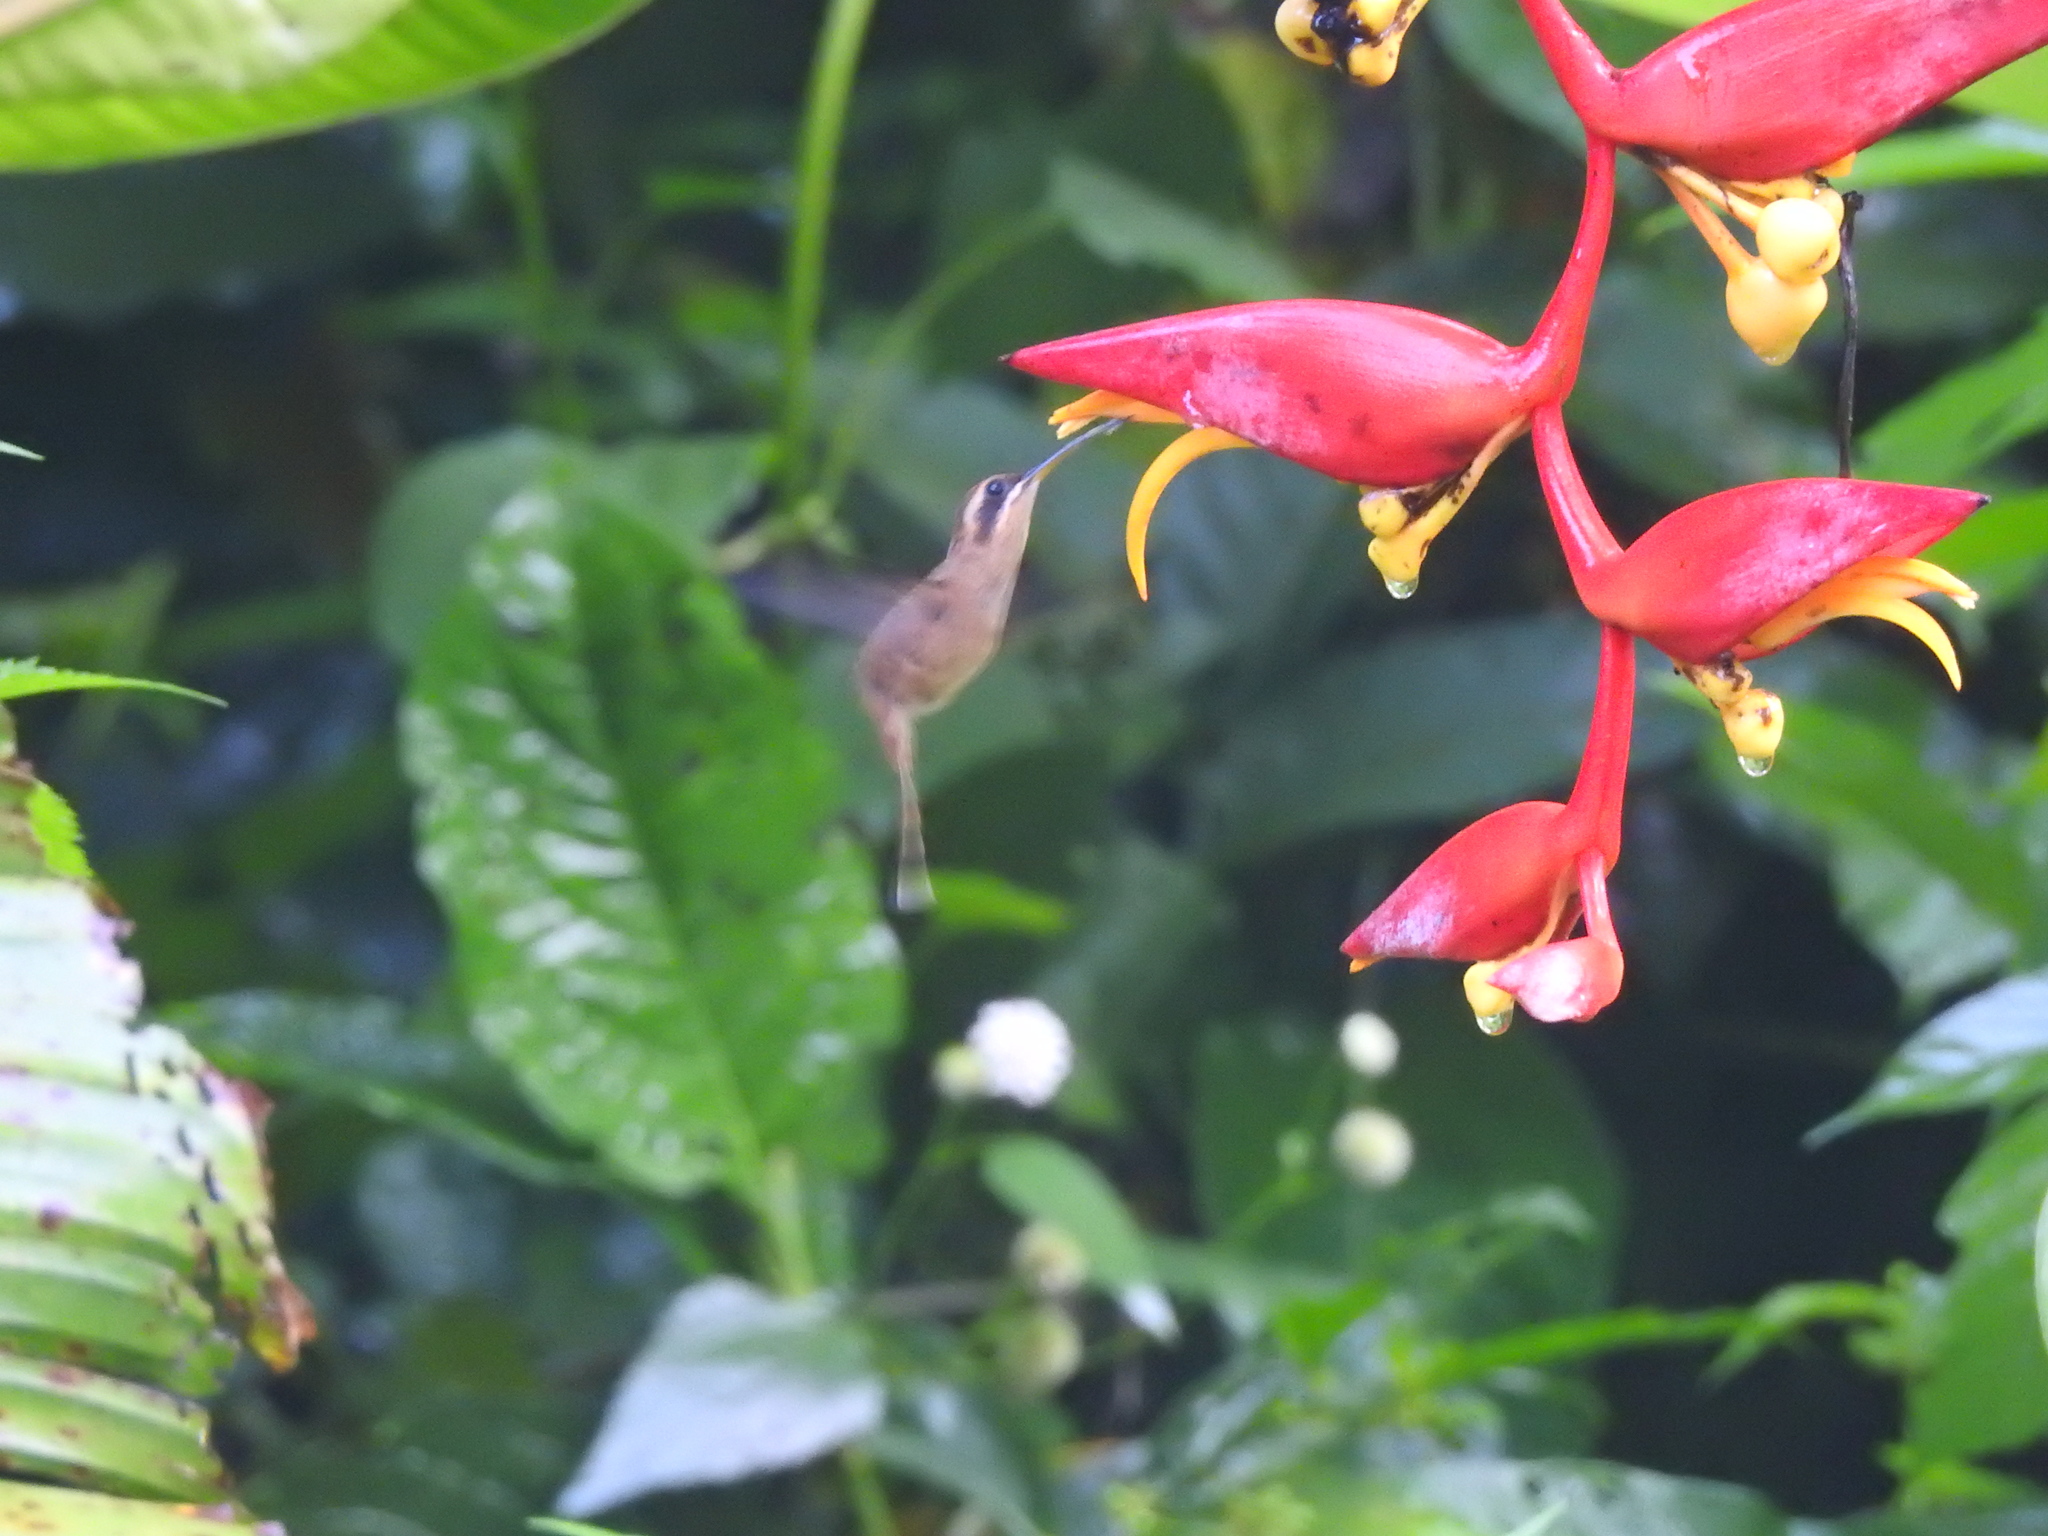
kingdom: Animalia
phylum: Chordata
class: Aves
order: Apodiformes
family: Trochilidae
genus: Phaethornis
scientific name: Phaethornis longirostris
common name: Long-billed hermit
